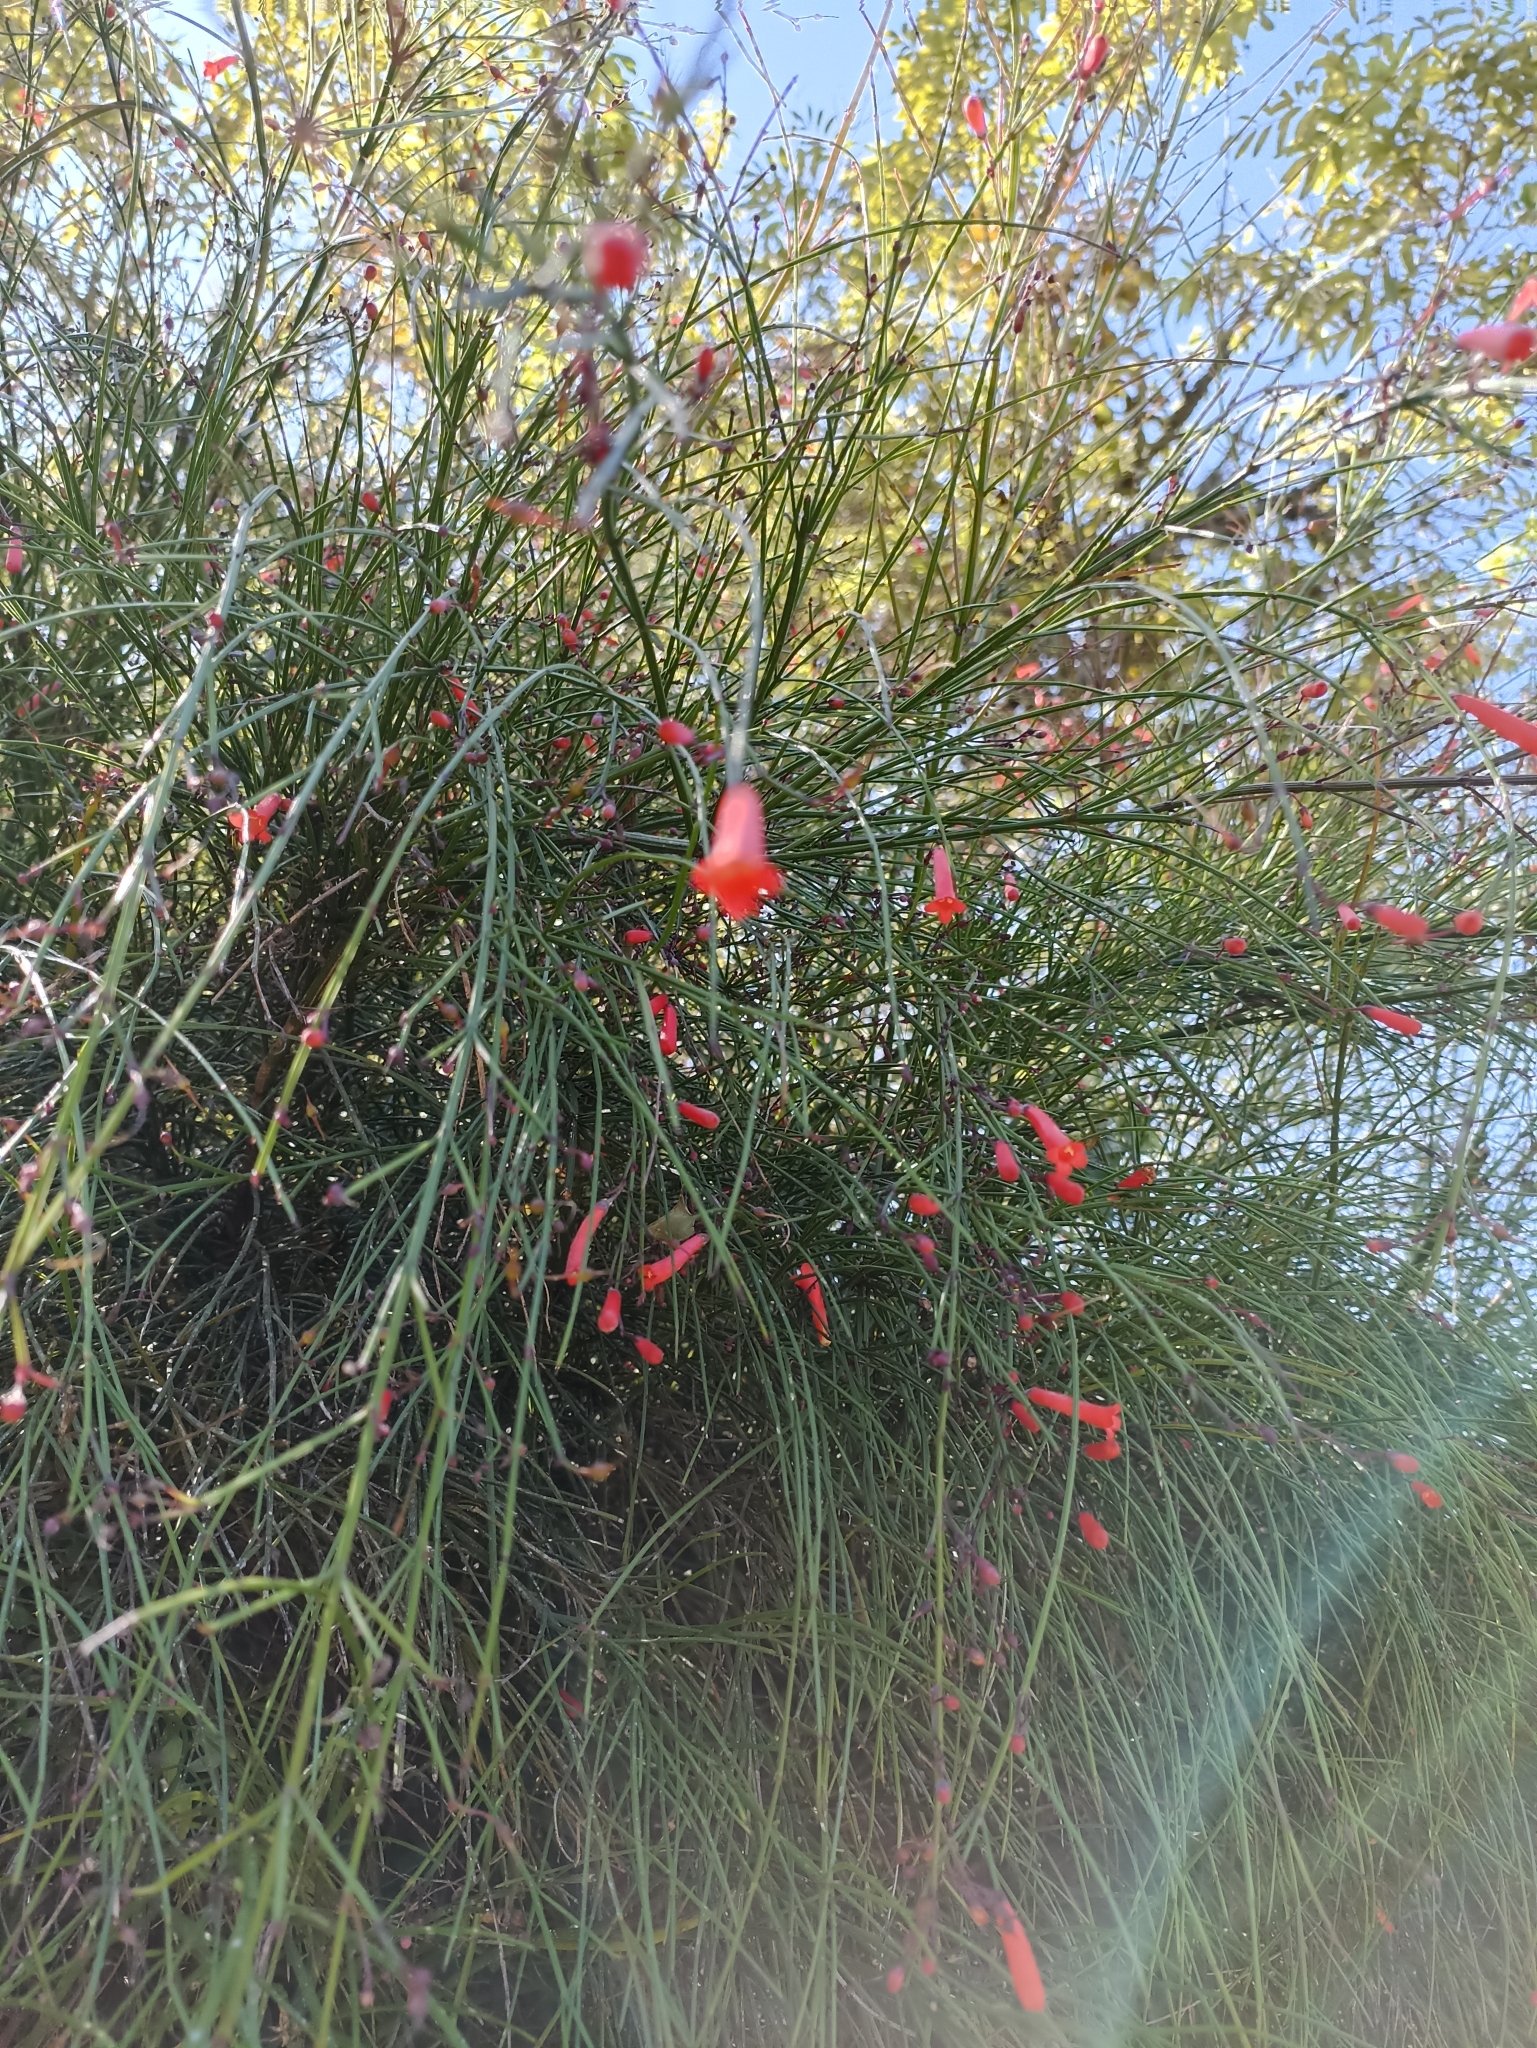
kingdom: Plantae
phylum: Tracheophyta
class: Magnoliopsida
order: Lamiales
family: Plantaginaceae
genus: Russelia
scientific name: Russelia equisetiformis
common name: Fountainbush
